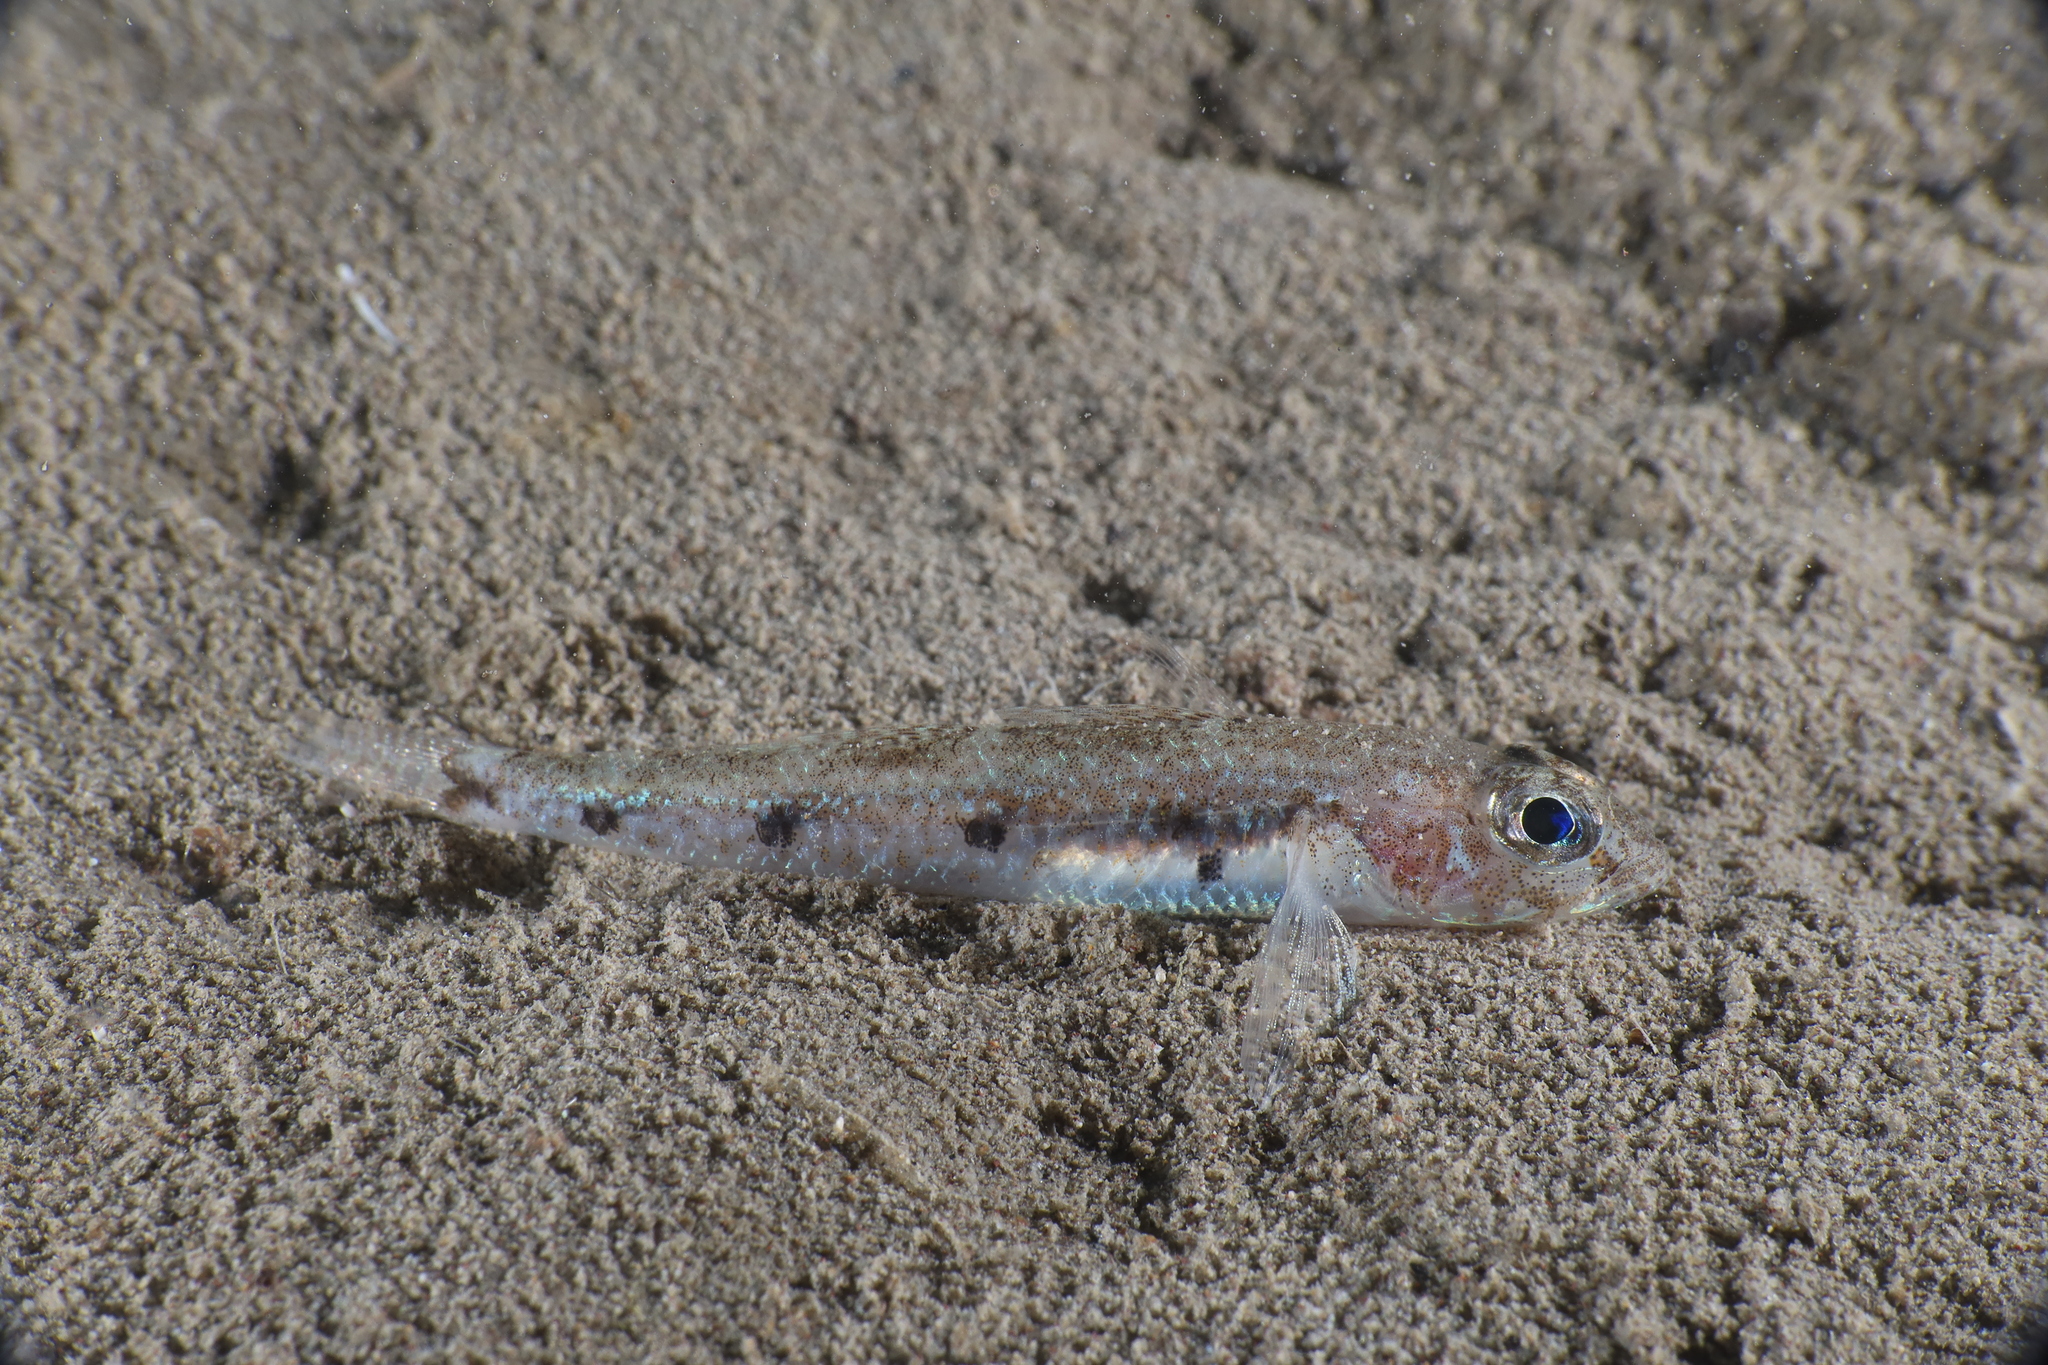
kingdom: Animalia
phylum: Chordata
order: Perciformes
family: Gobiidae
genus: Deltentosteus
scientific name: Deltentosteus quadrimaculatus
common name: Four-spotted goby
